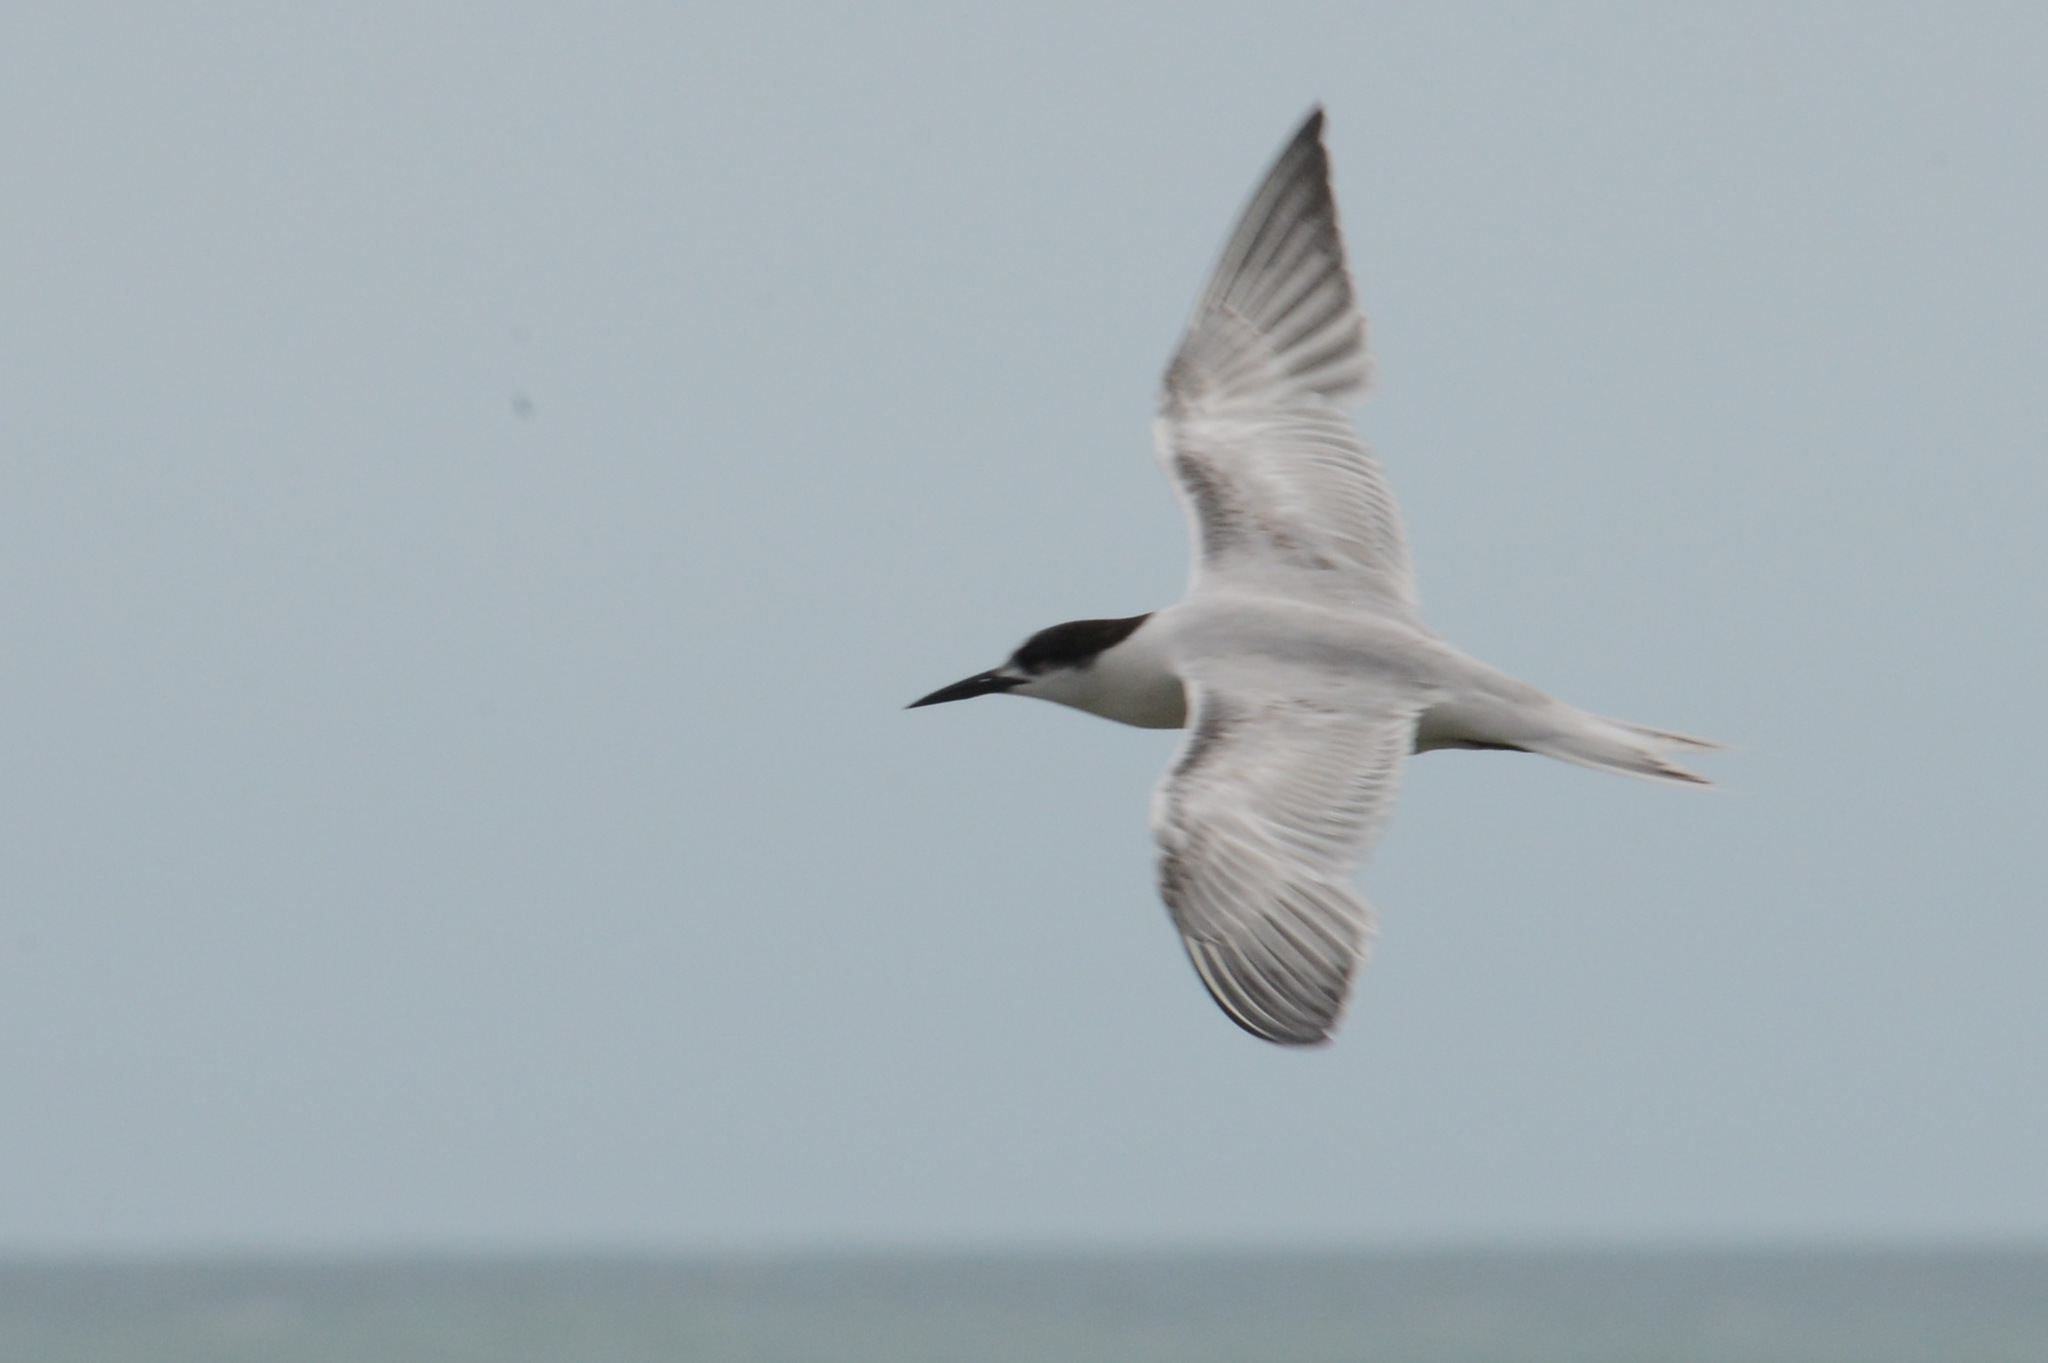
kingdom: Animalia
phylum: Chordata
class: Aves
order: Charadriiformes
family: Laridae
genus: Sterna
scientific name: Sterna dougallii
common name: Roseate tern
